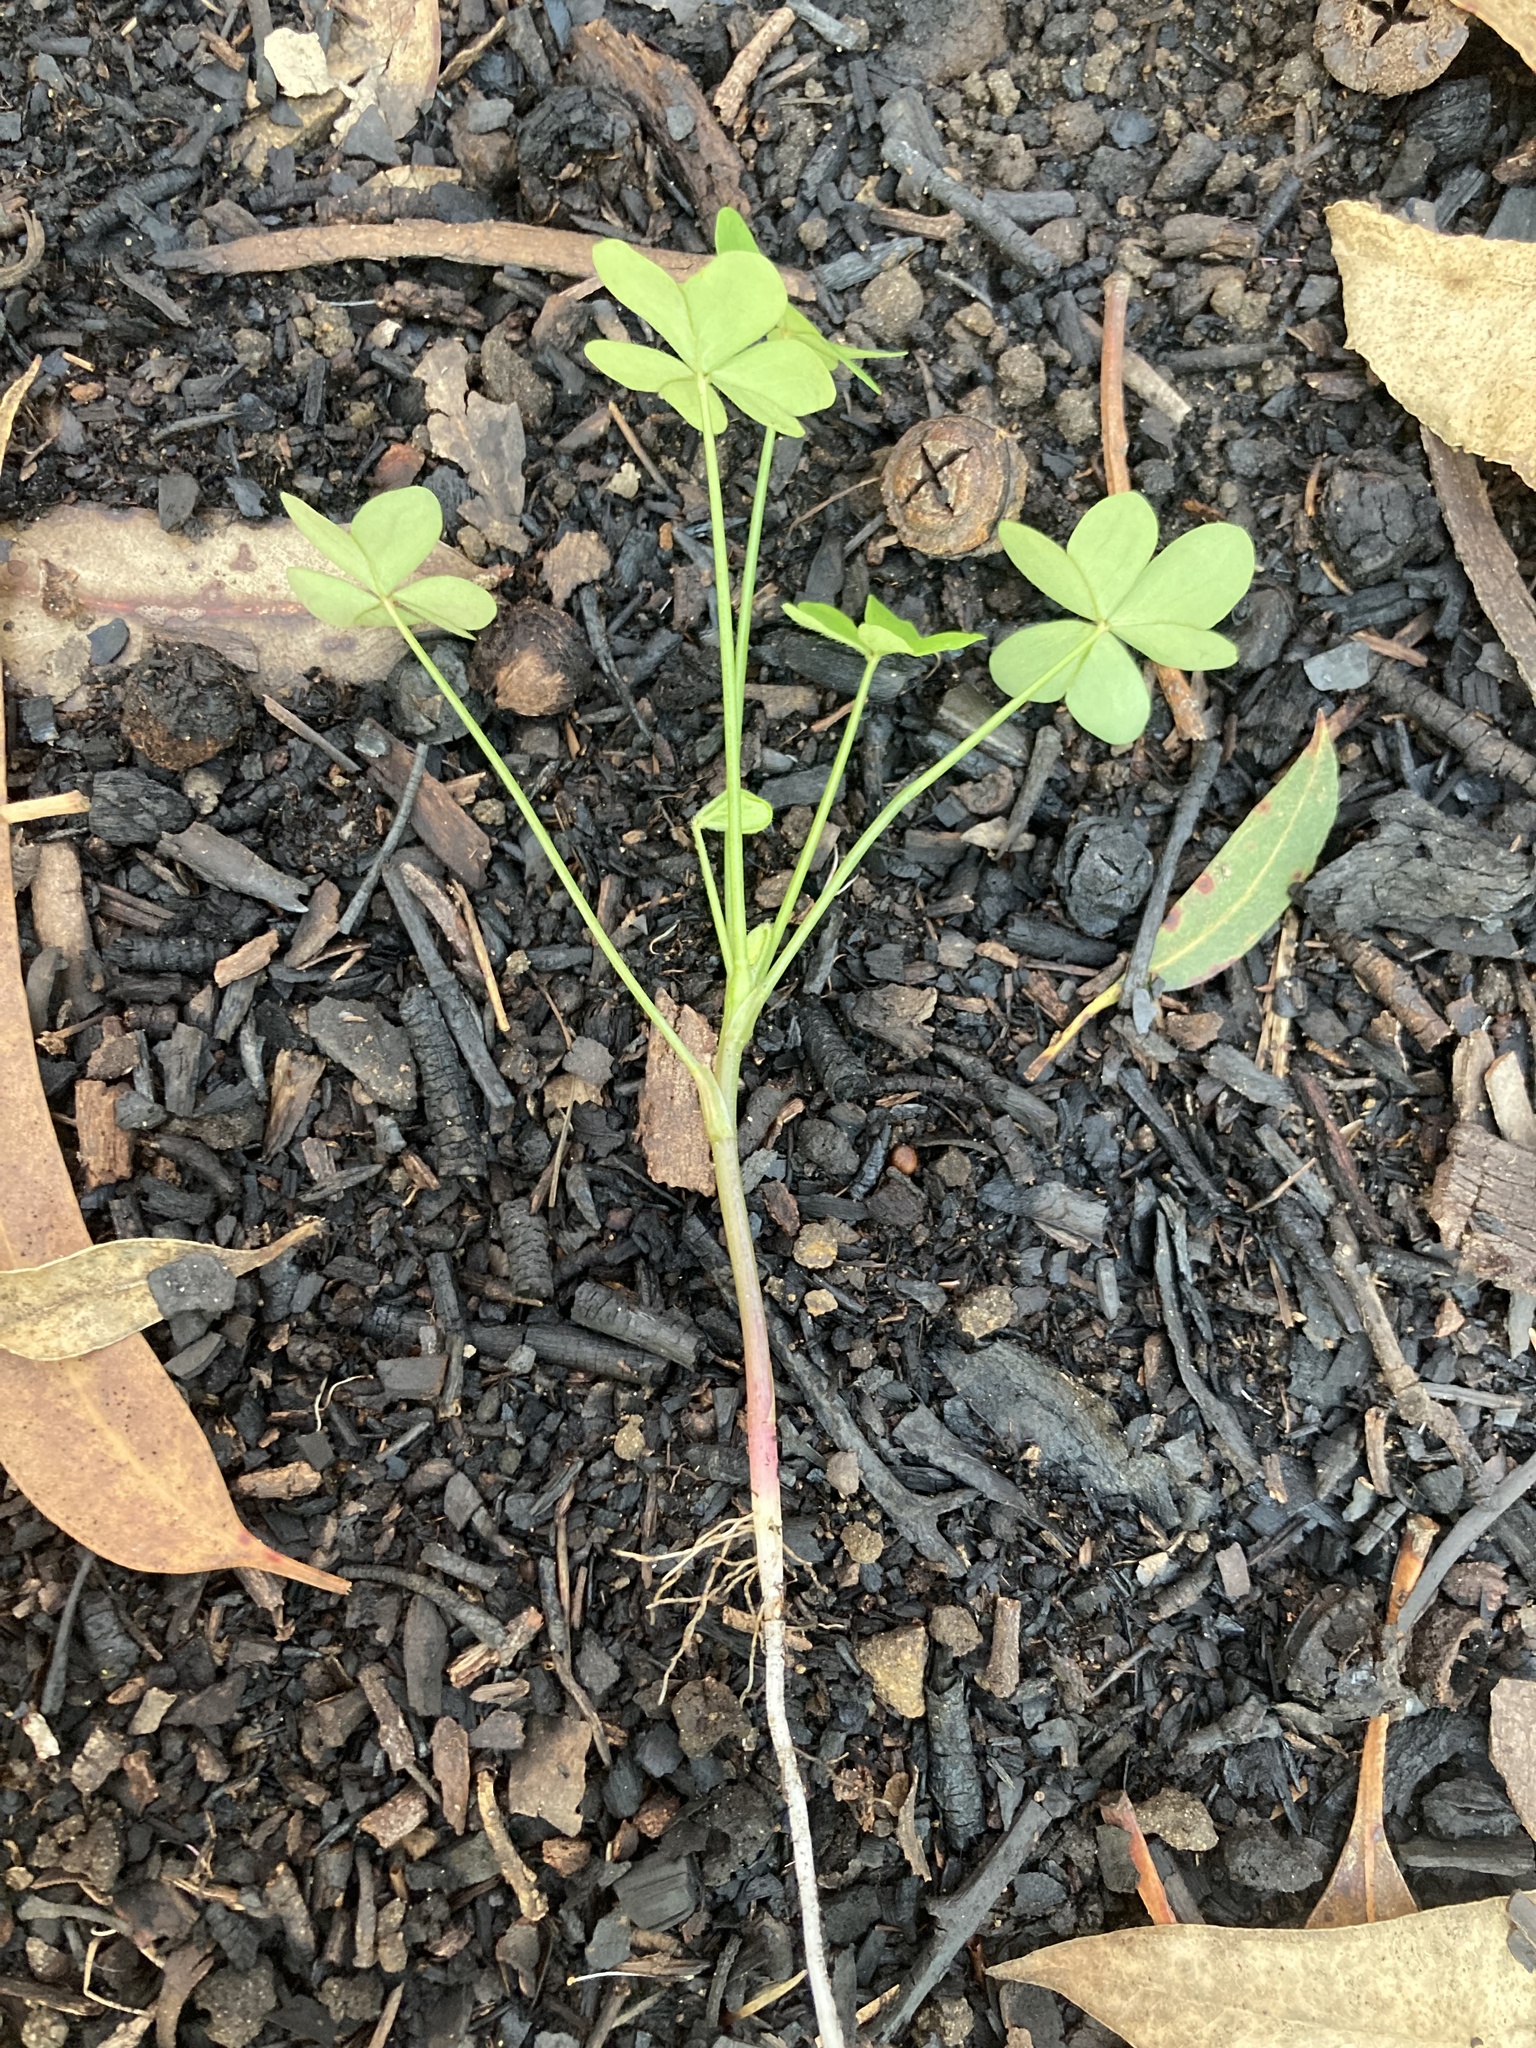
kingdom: Plantae
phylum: Tracheophyta
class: Magnoliopsida
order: Oxalidales
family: Oxalidaceae
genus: Oxalis
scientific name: Oxalis pes-caprae
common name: Bermuda-buttercup
